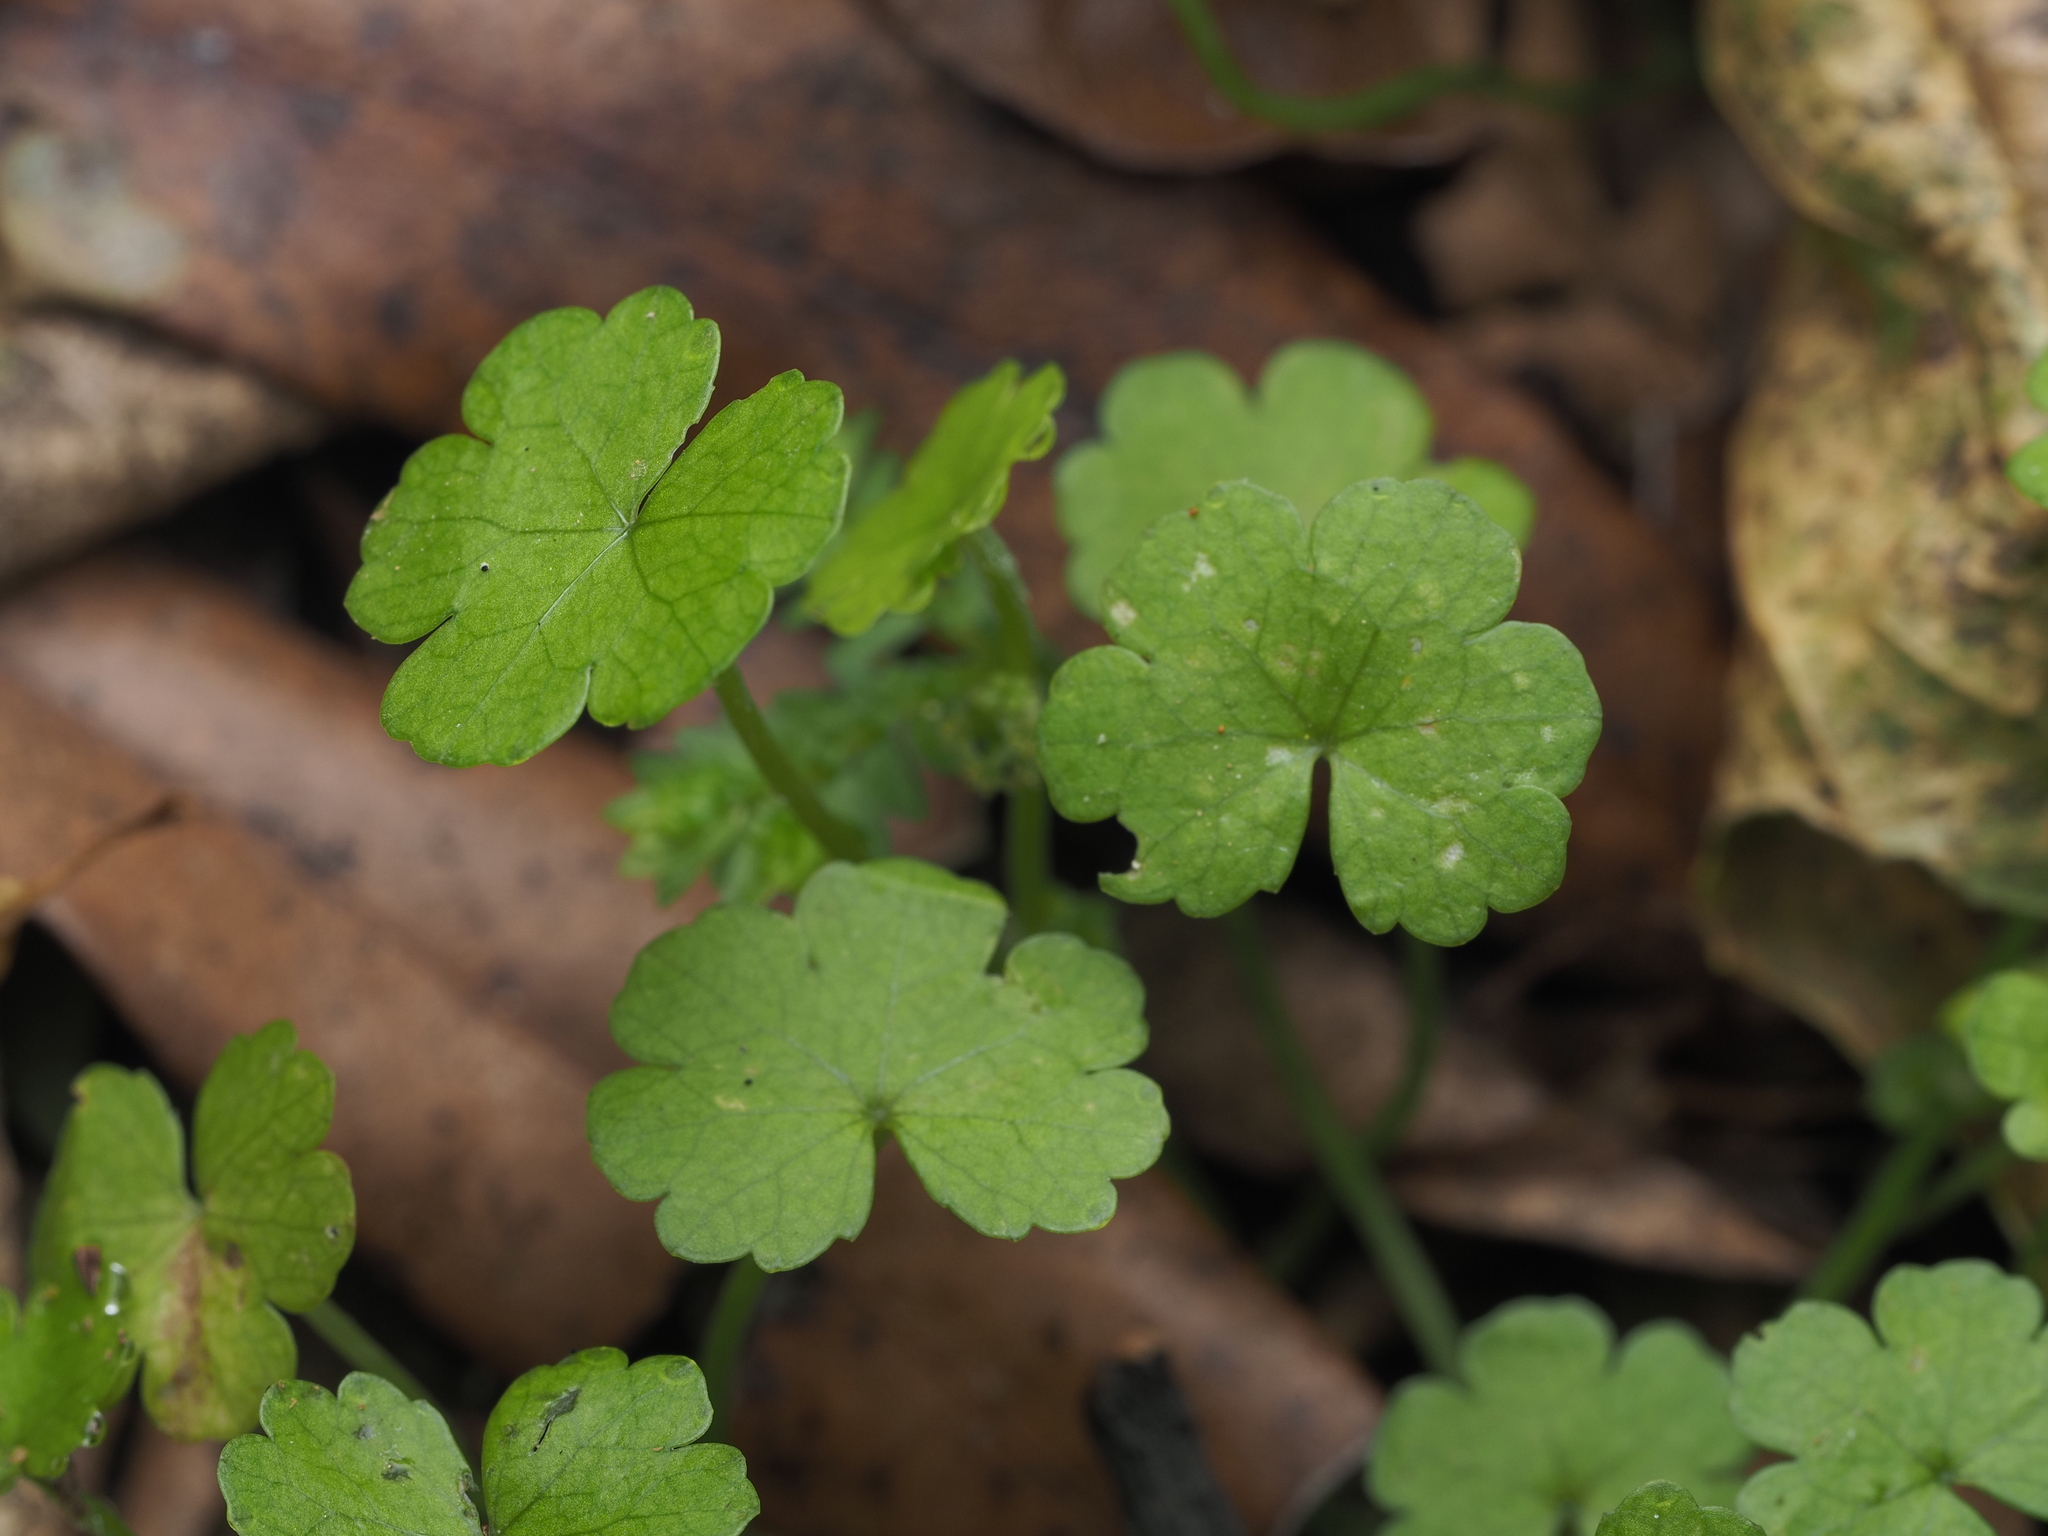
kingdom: Plantae
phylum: Tracheophyta
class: Magnoliopsida
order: Apiales
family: Araliaceae
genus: Hydrocotyle
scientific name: Hydrocotyle heteromeria
